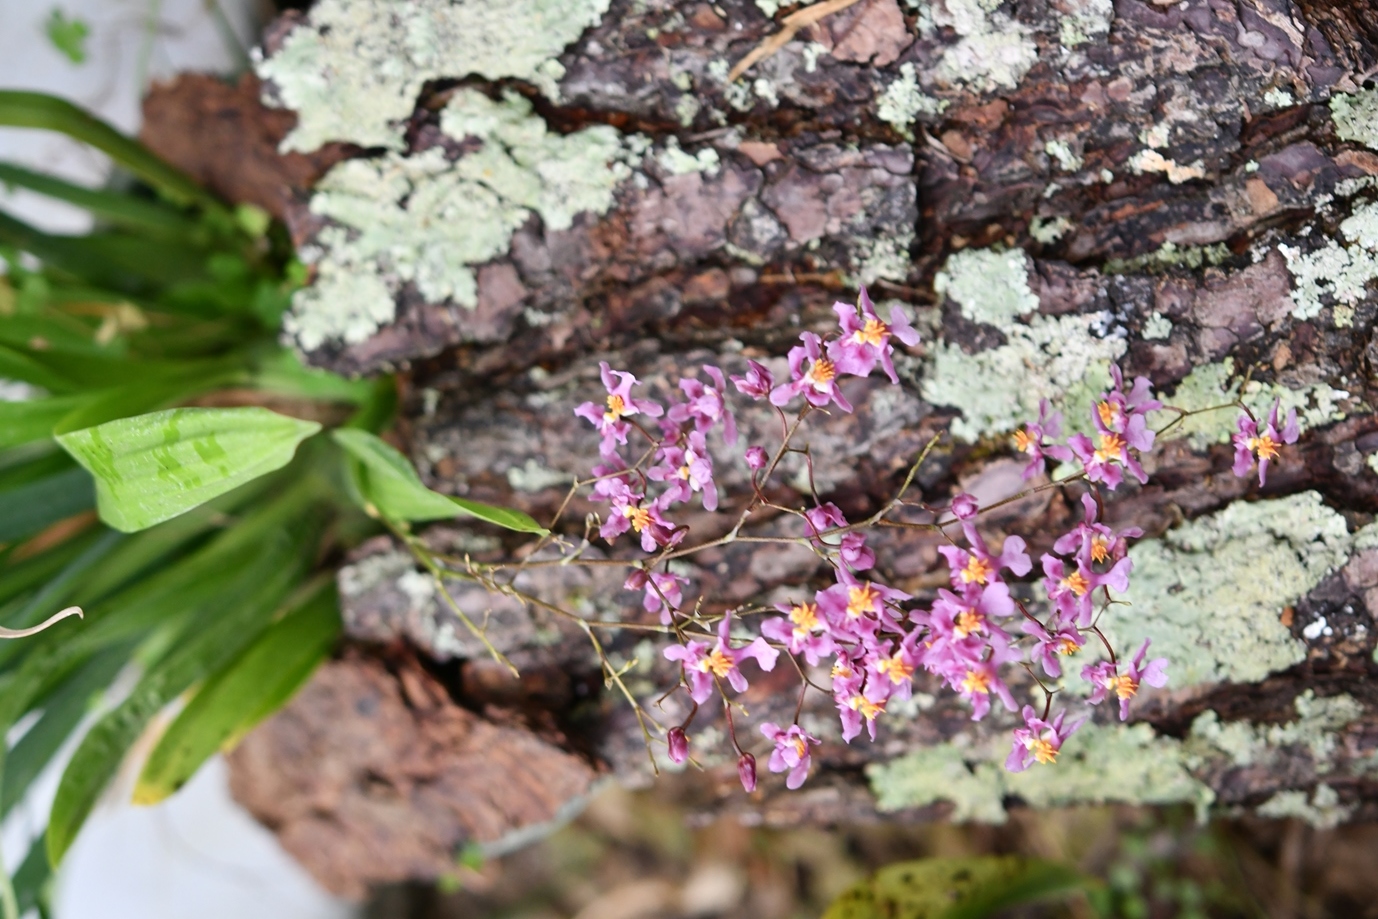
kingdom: Plantae
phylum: Tracheophyta
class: Liliopsida
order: Asparagales
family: Orchidaceae
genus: Oncidium
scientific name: Oncidium sotoanum
